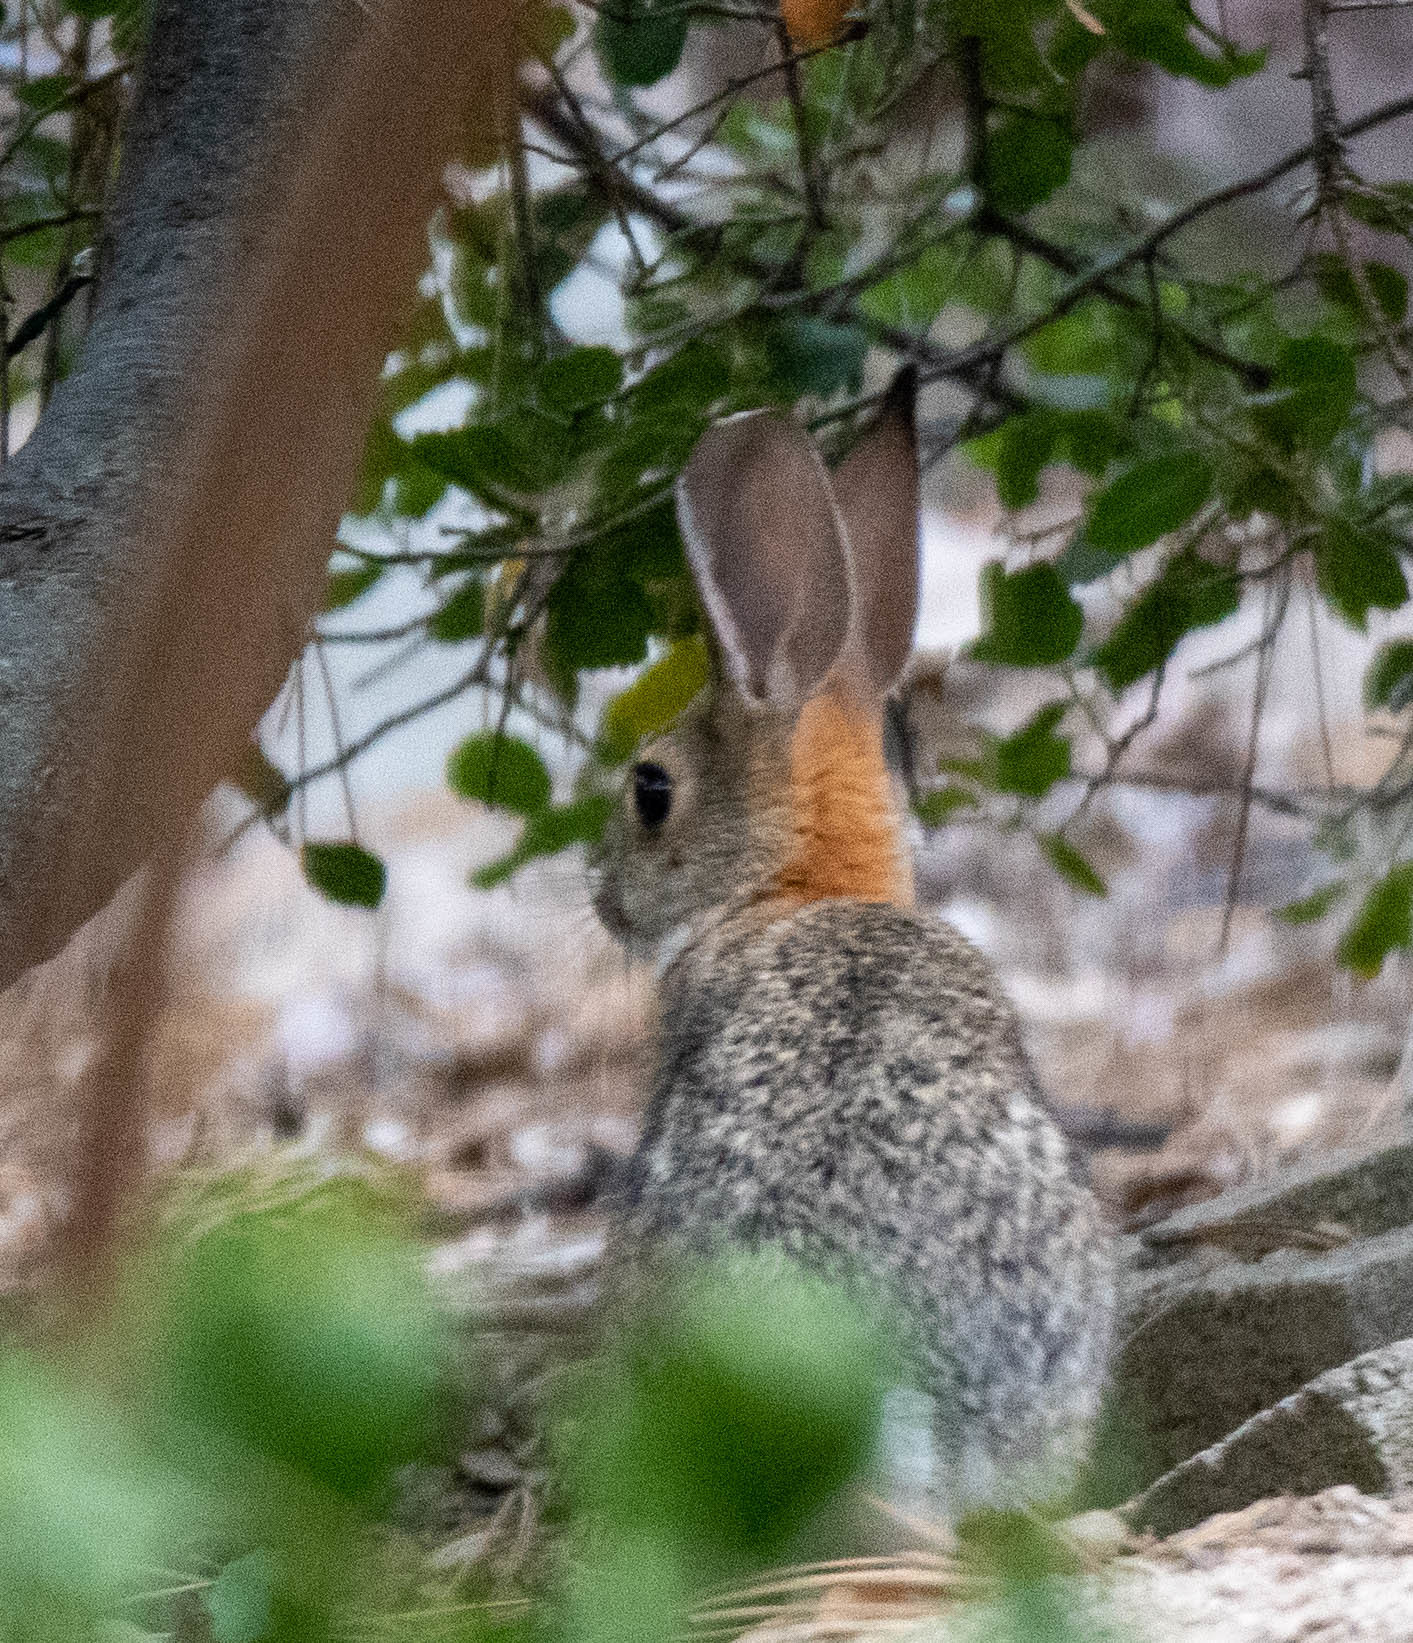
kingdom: Animalia
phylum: Chordata
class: Mammalia
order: Lagomorpha
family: Leporidae
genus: Sylvilagus
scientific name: Sylvilagus audubonii
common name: Desert cottontail
